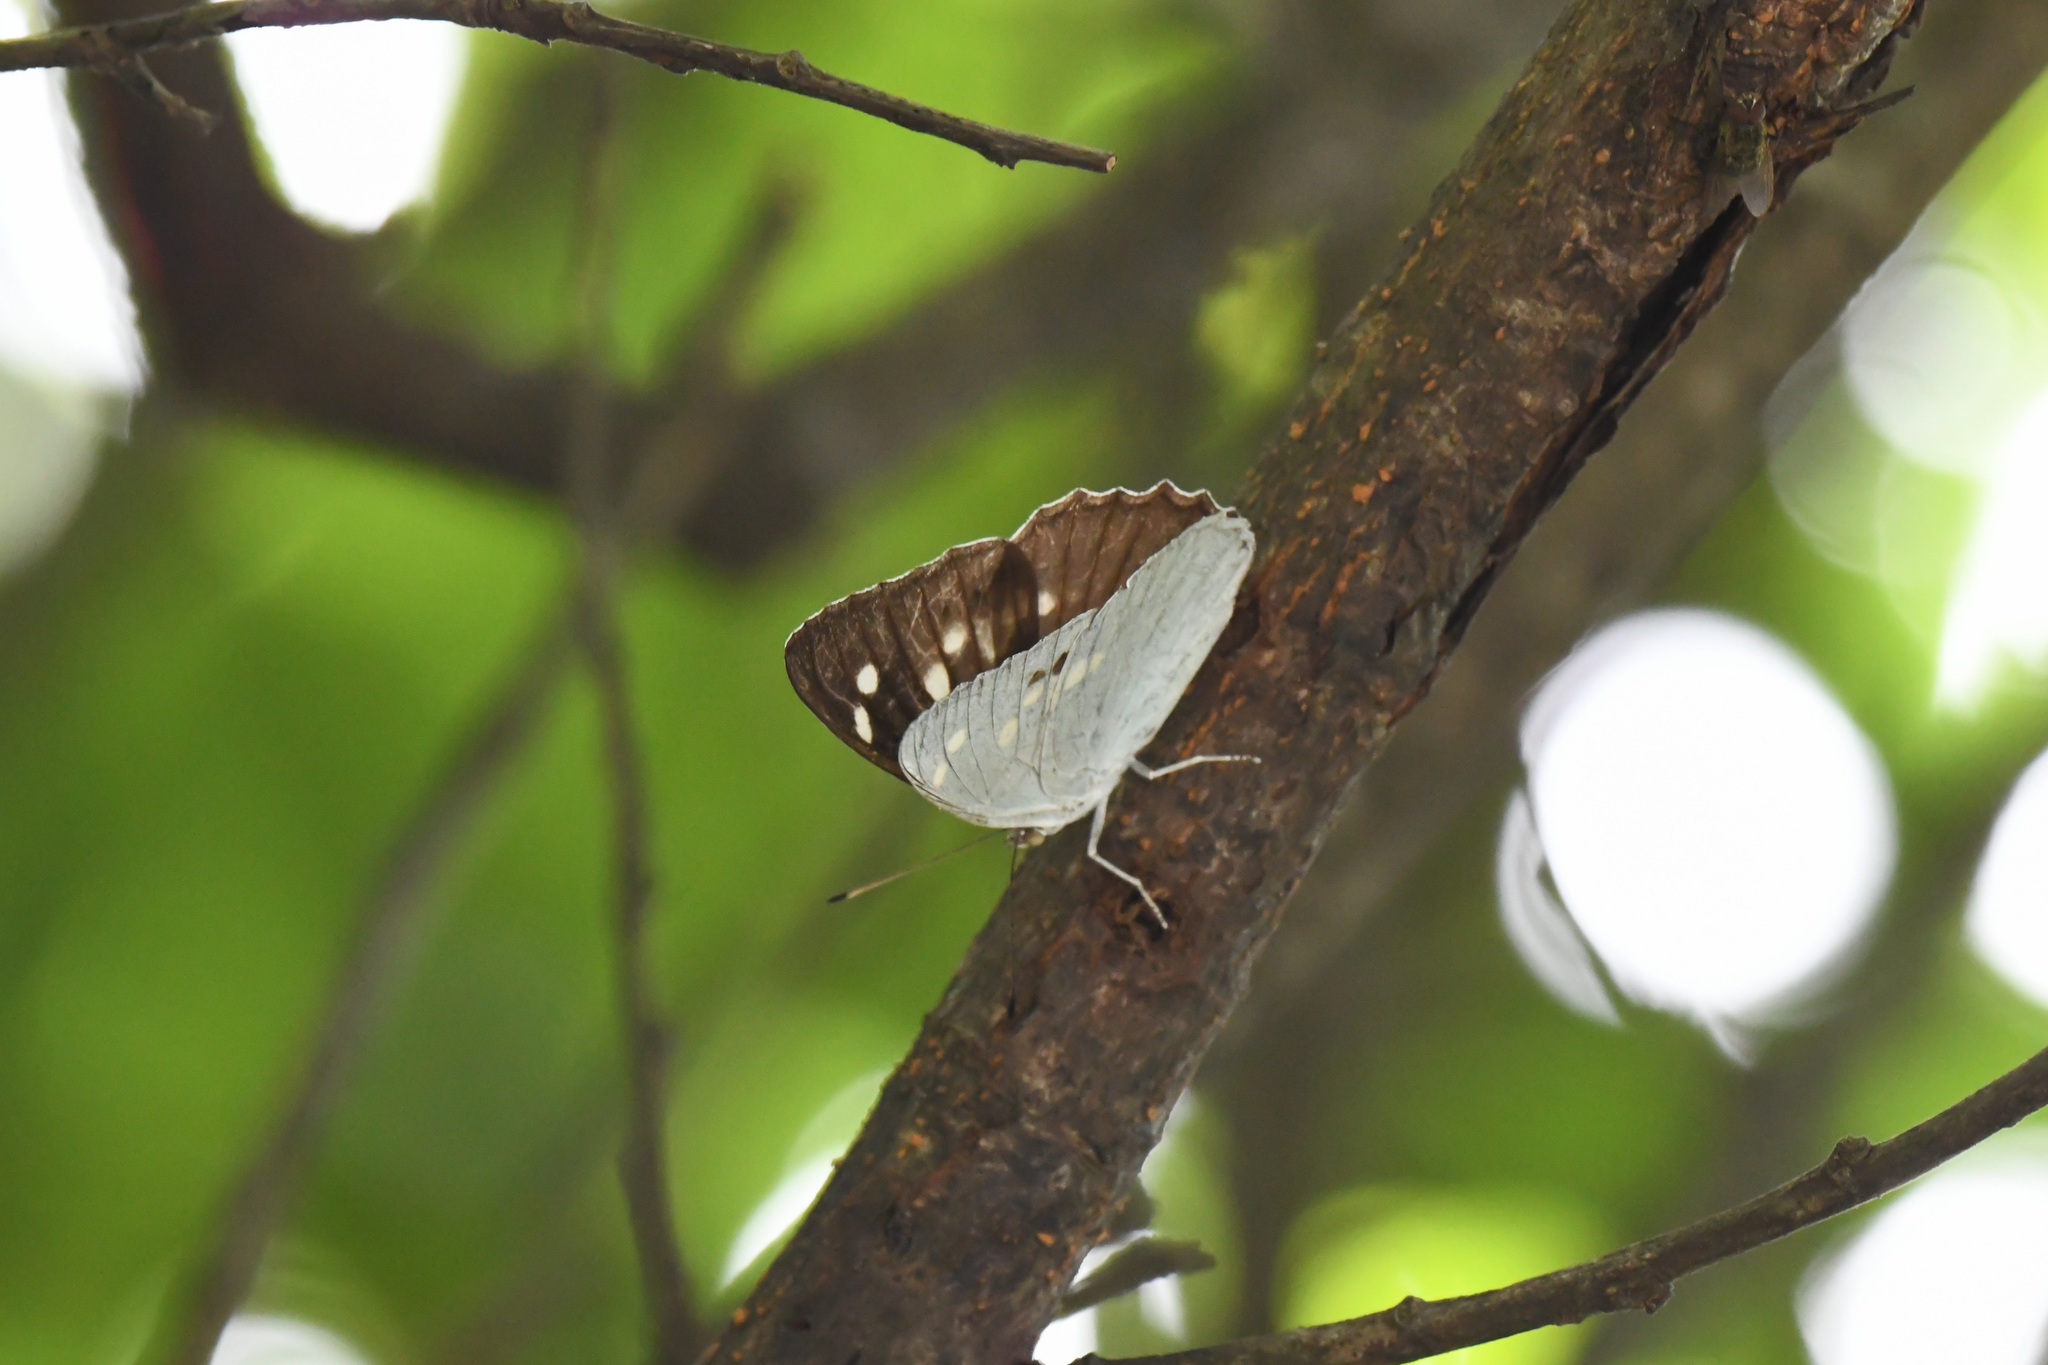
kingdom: Animalia
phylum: Arthropoda
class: Insecta
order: Lepidoptera
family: Nymphalidae
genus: Helcyra
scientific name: Helcyra
